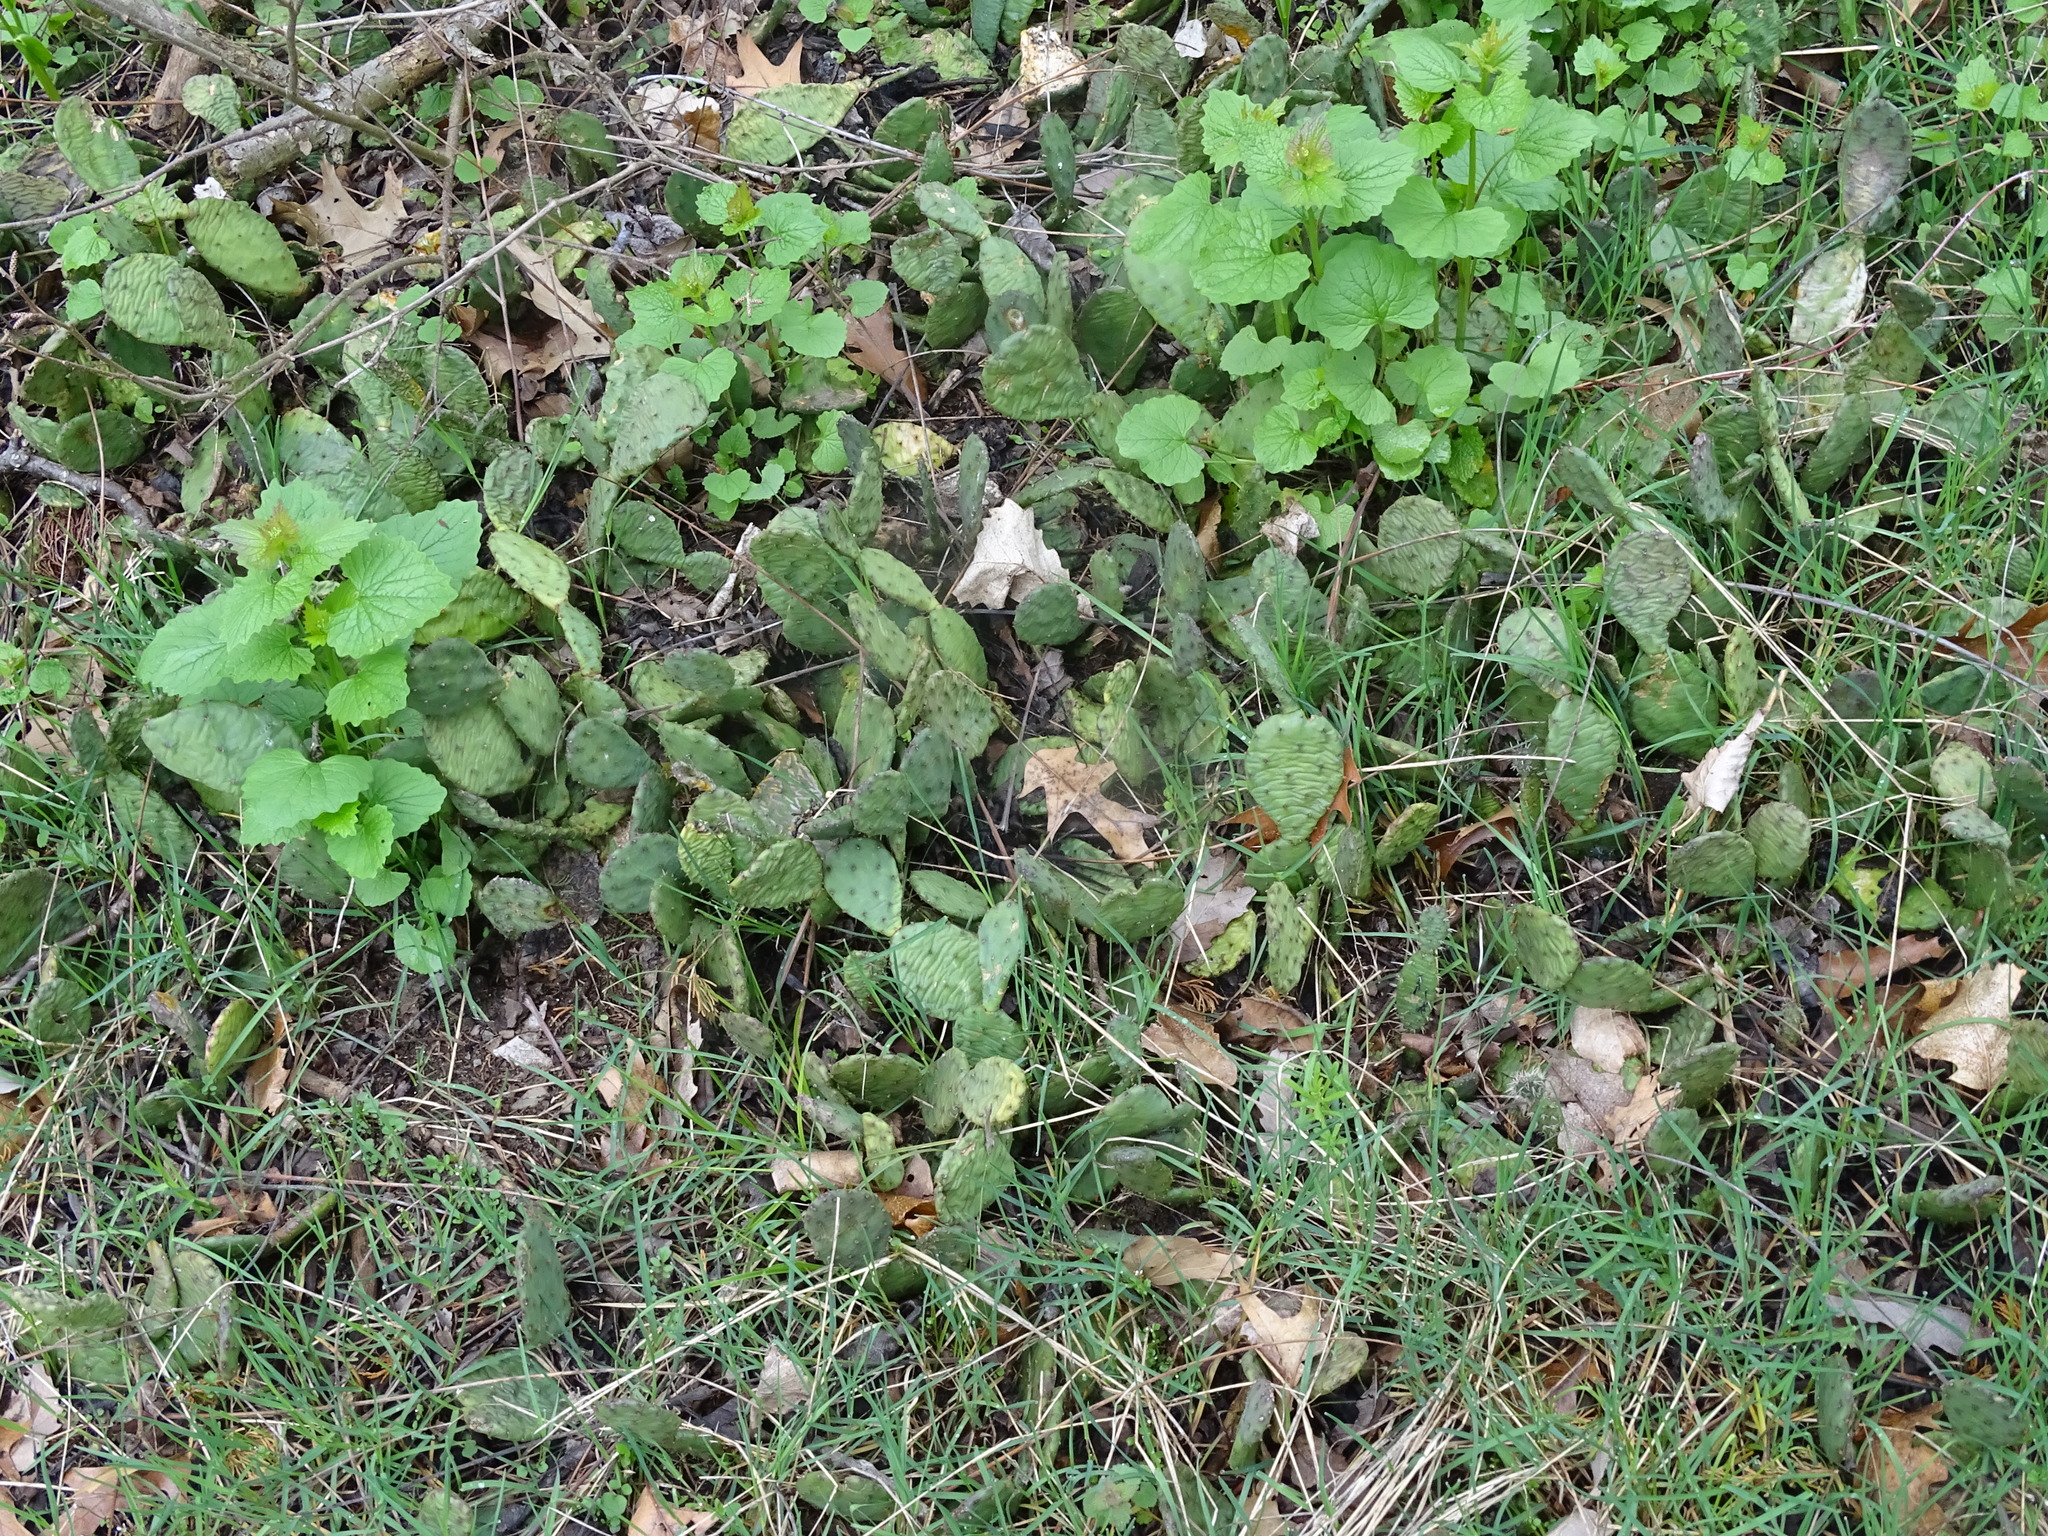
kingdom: Plantae
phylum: Tracheophyta
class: Magnoliopsida
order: Caryophyllales
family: Cactaceae
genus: Opuntia
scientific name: Opuntia humifusa
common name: Eastern prickly-pear
